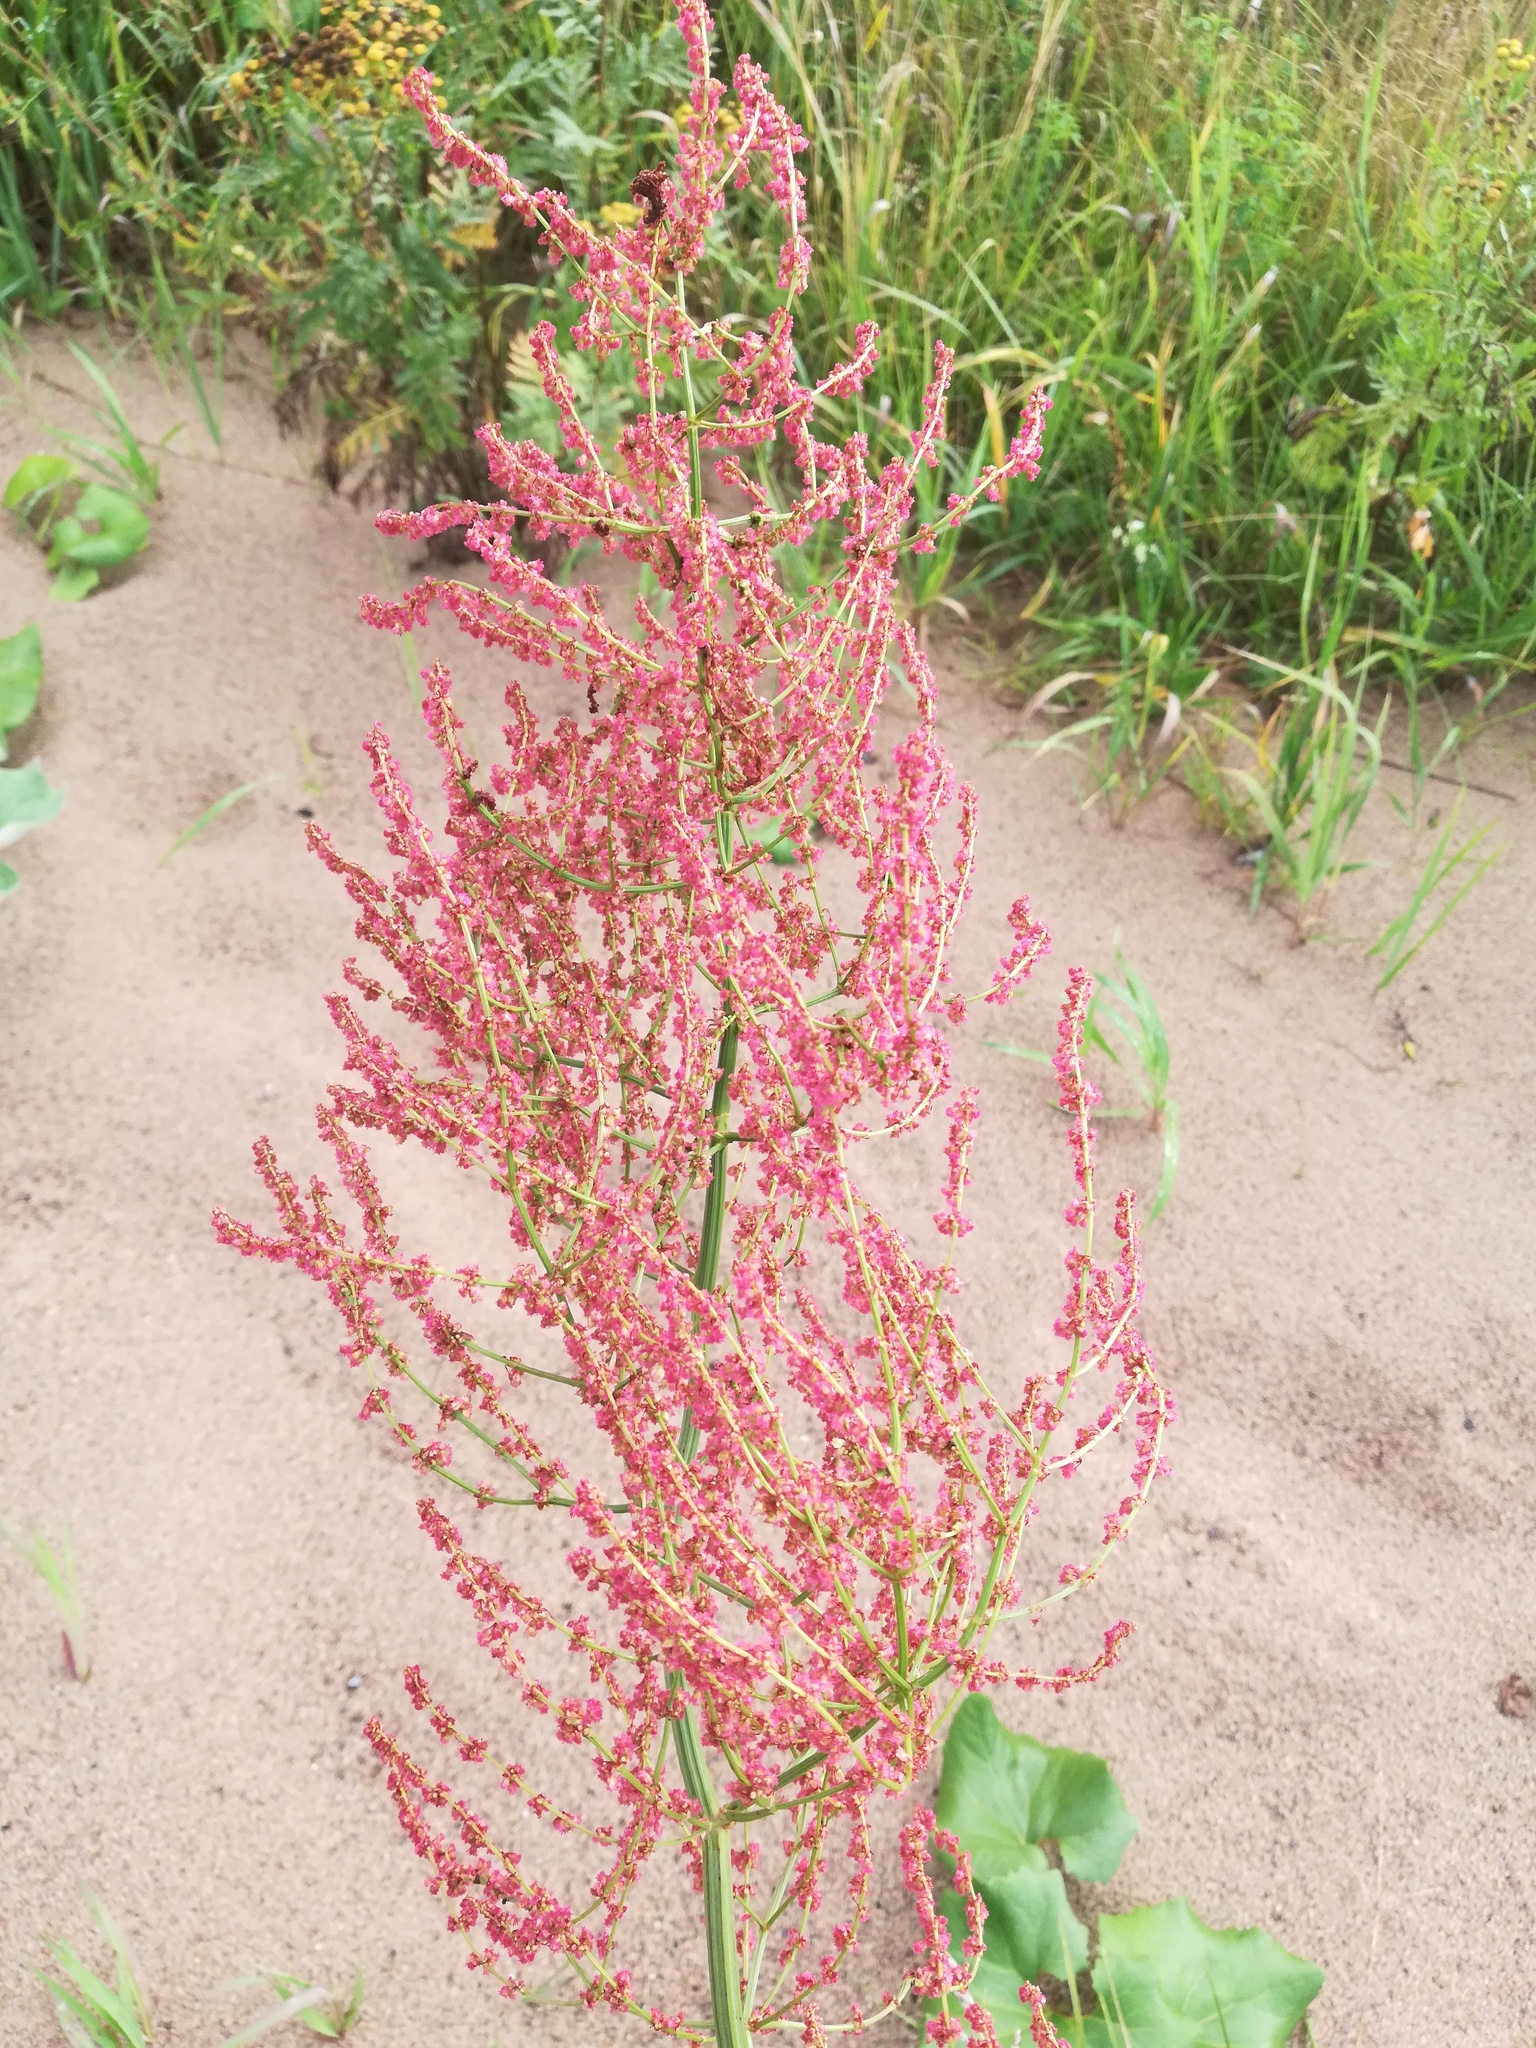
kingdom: Plantae
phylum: Tracheophyta
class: Magnoliopsida
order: Caryophyllales
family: Polygonaceae
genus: Rumex
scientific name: Rumex thyrsiflorus
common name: Garden sorrel
